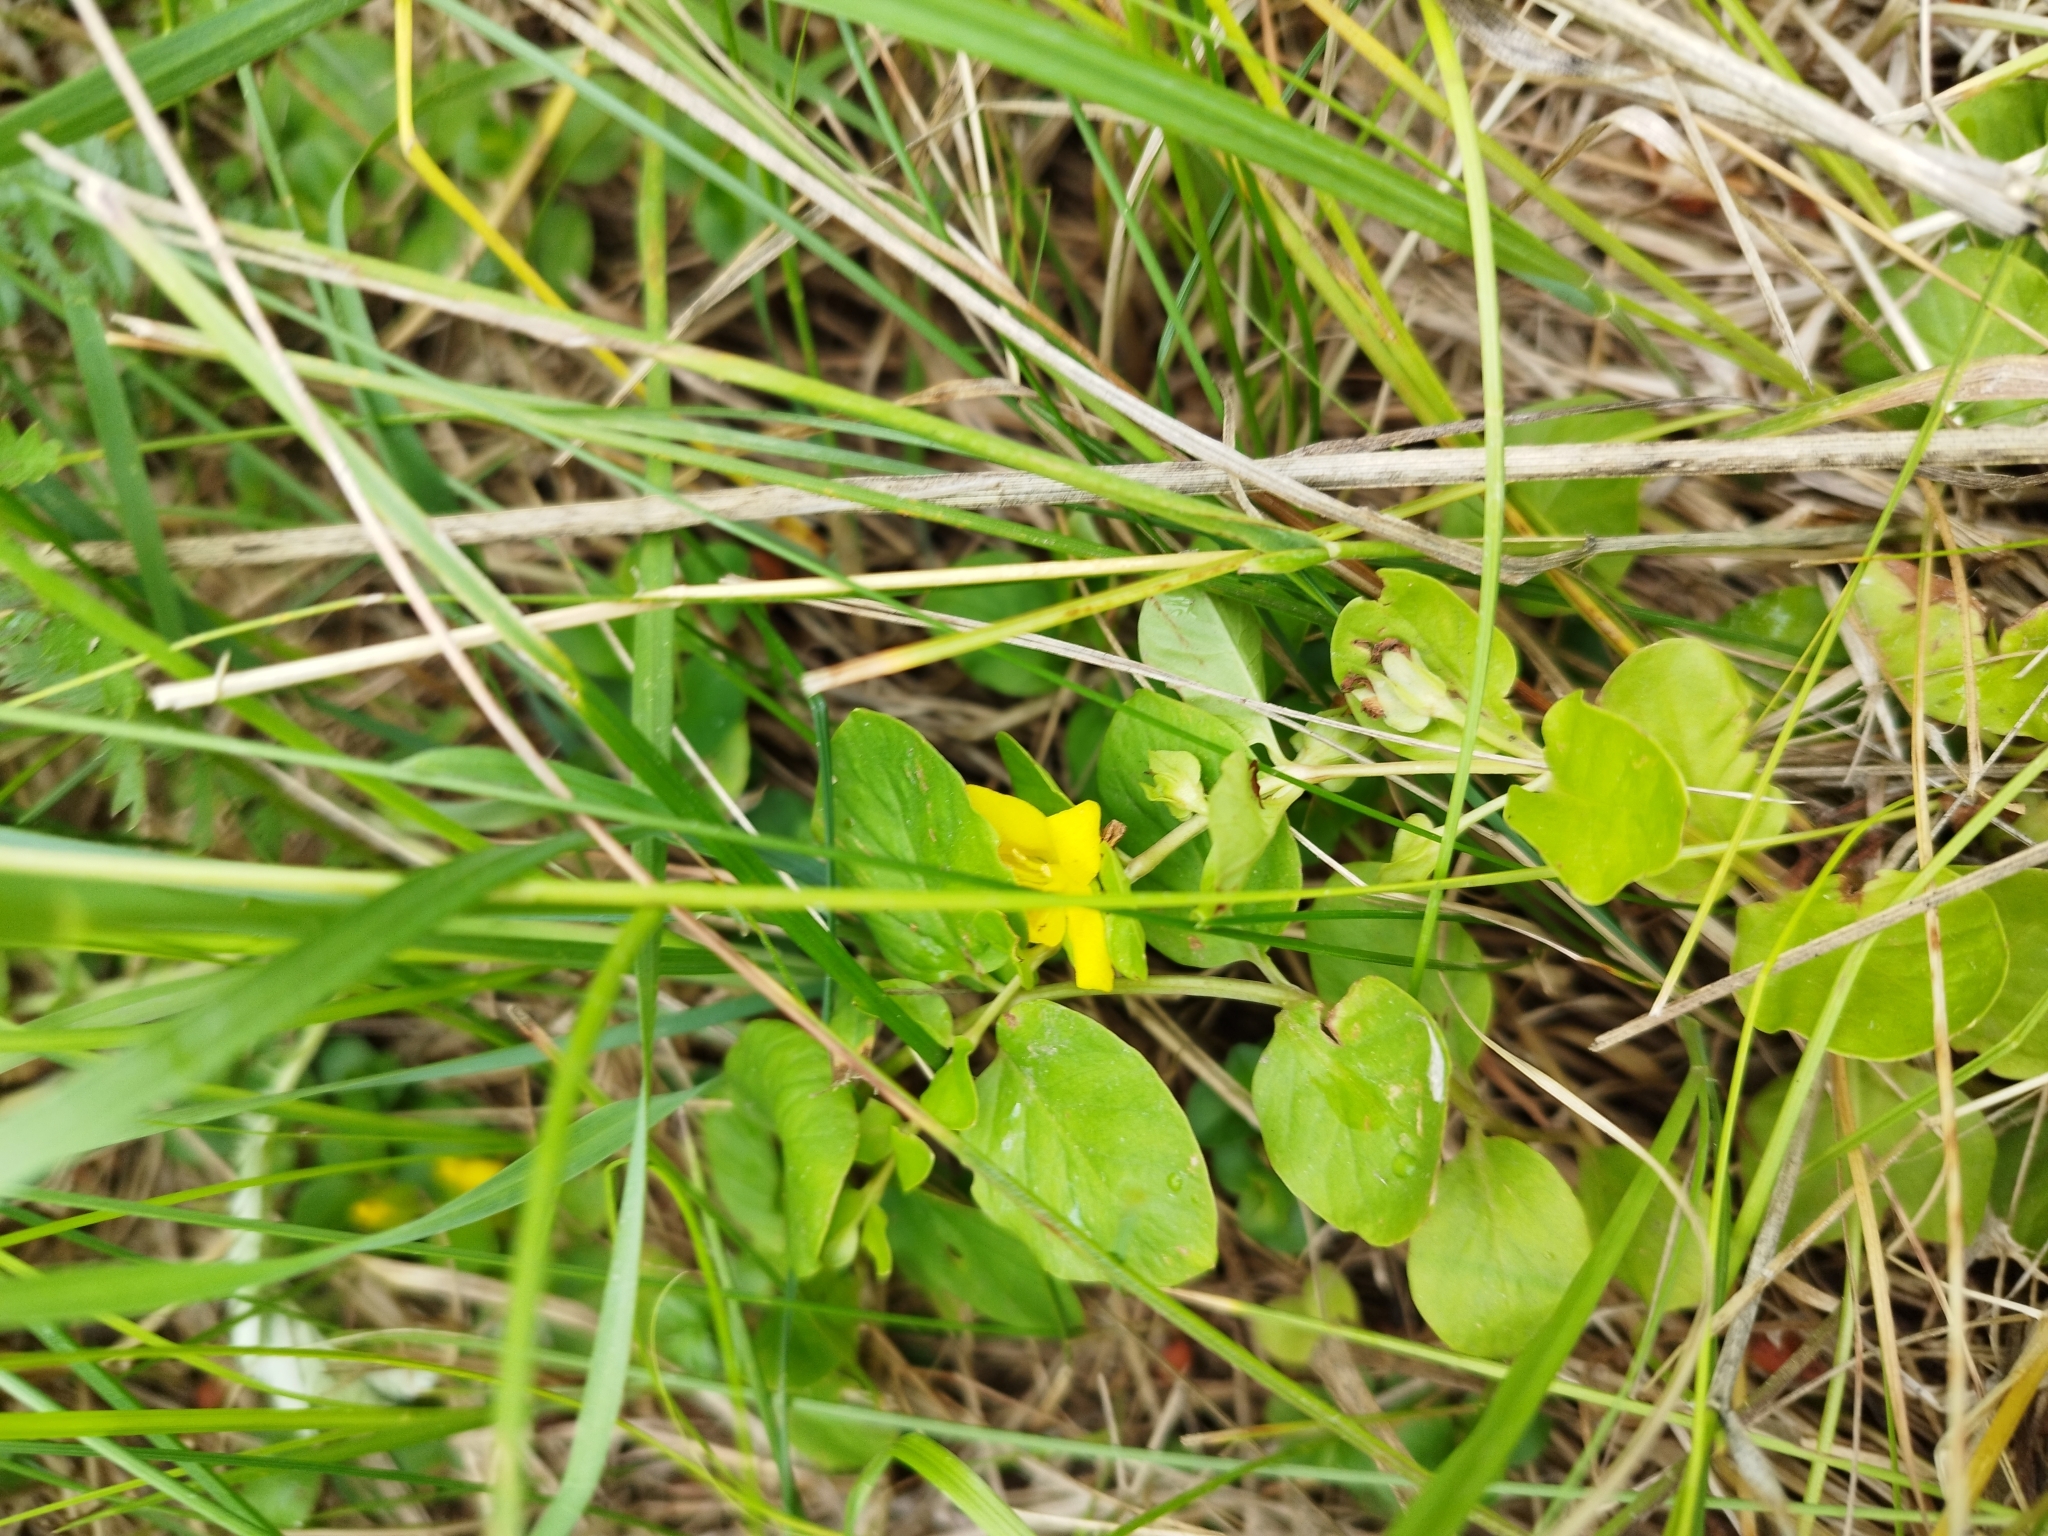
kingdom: Plantae
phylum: Tracheophyta
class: Magnoliopsida
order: Ericales
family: Primulaceae
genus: Lysimachia
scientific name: Lysimachia nummularia
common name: Moneywort
